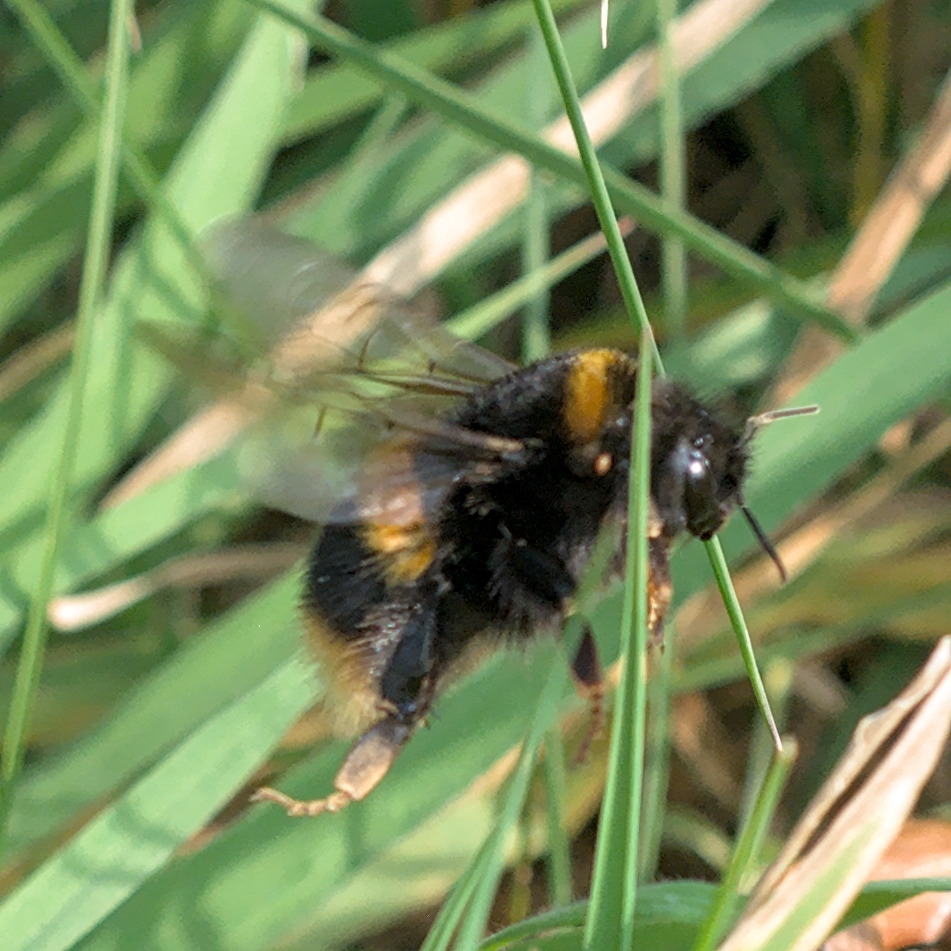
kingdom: Animalia
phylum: Arthropoda
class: Insecta
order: Hymenoptera
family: Apidae
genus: Bombus
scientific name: Bombus terrestris
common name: Buff-tailed bumblebee
